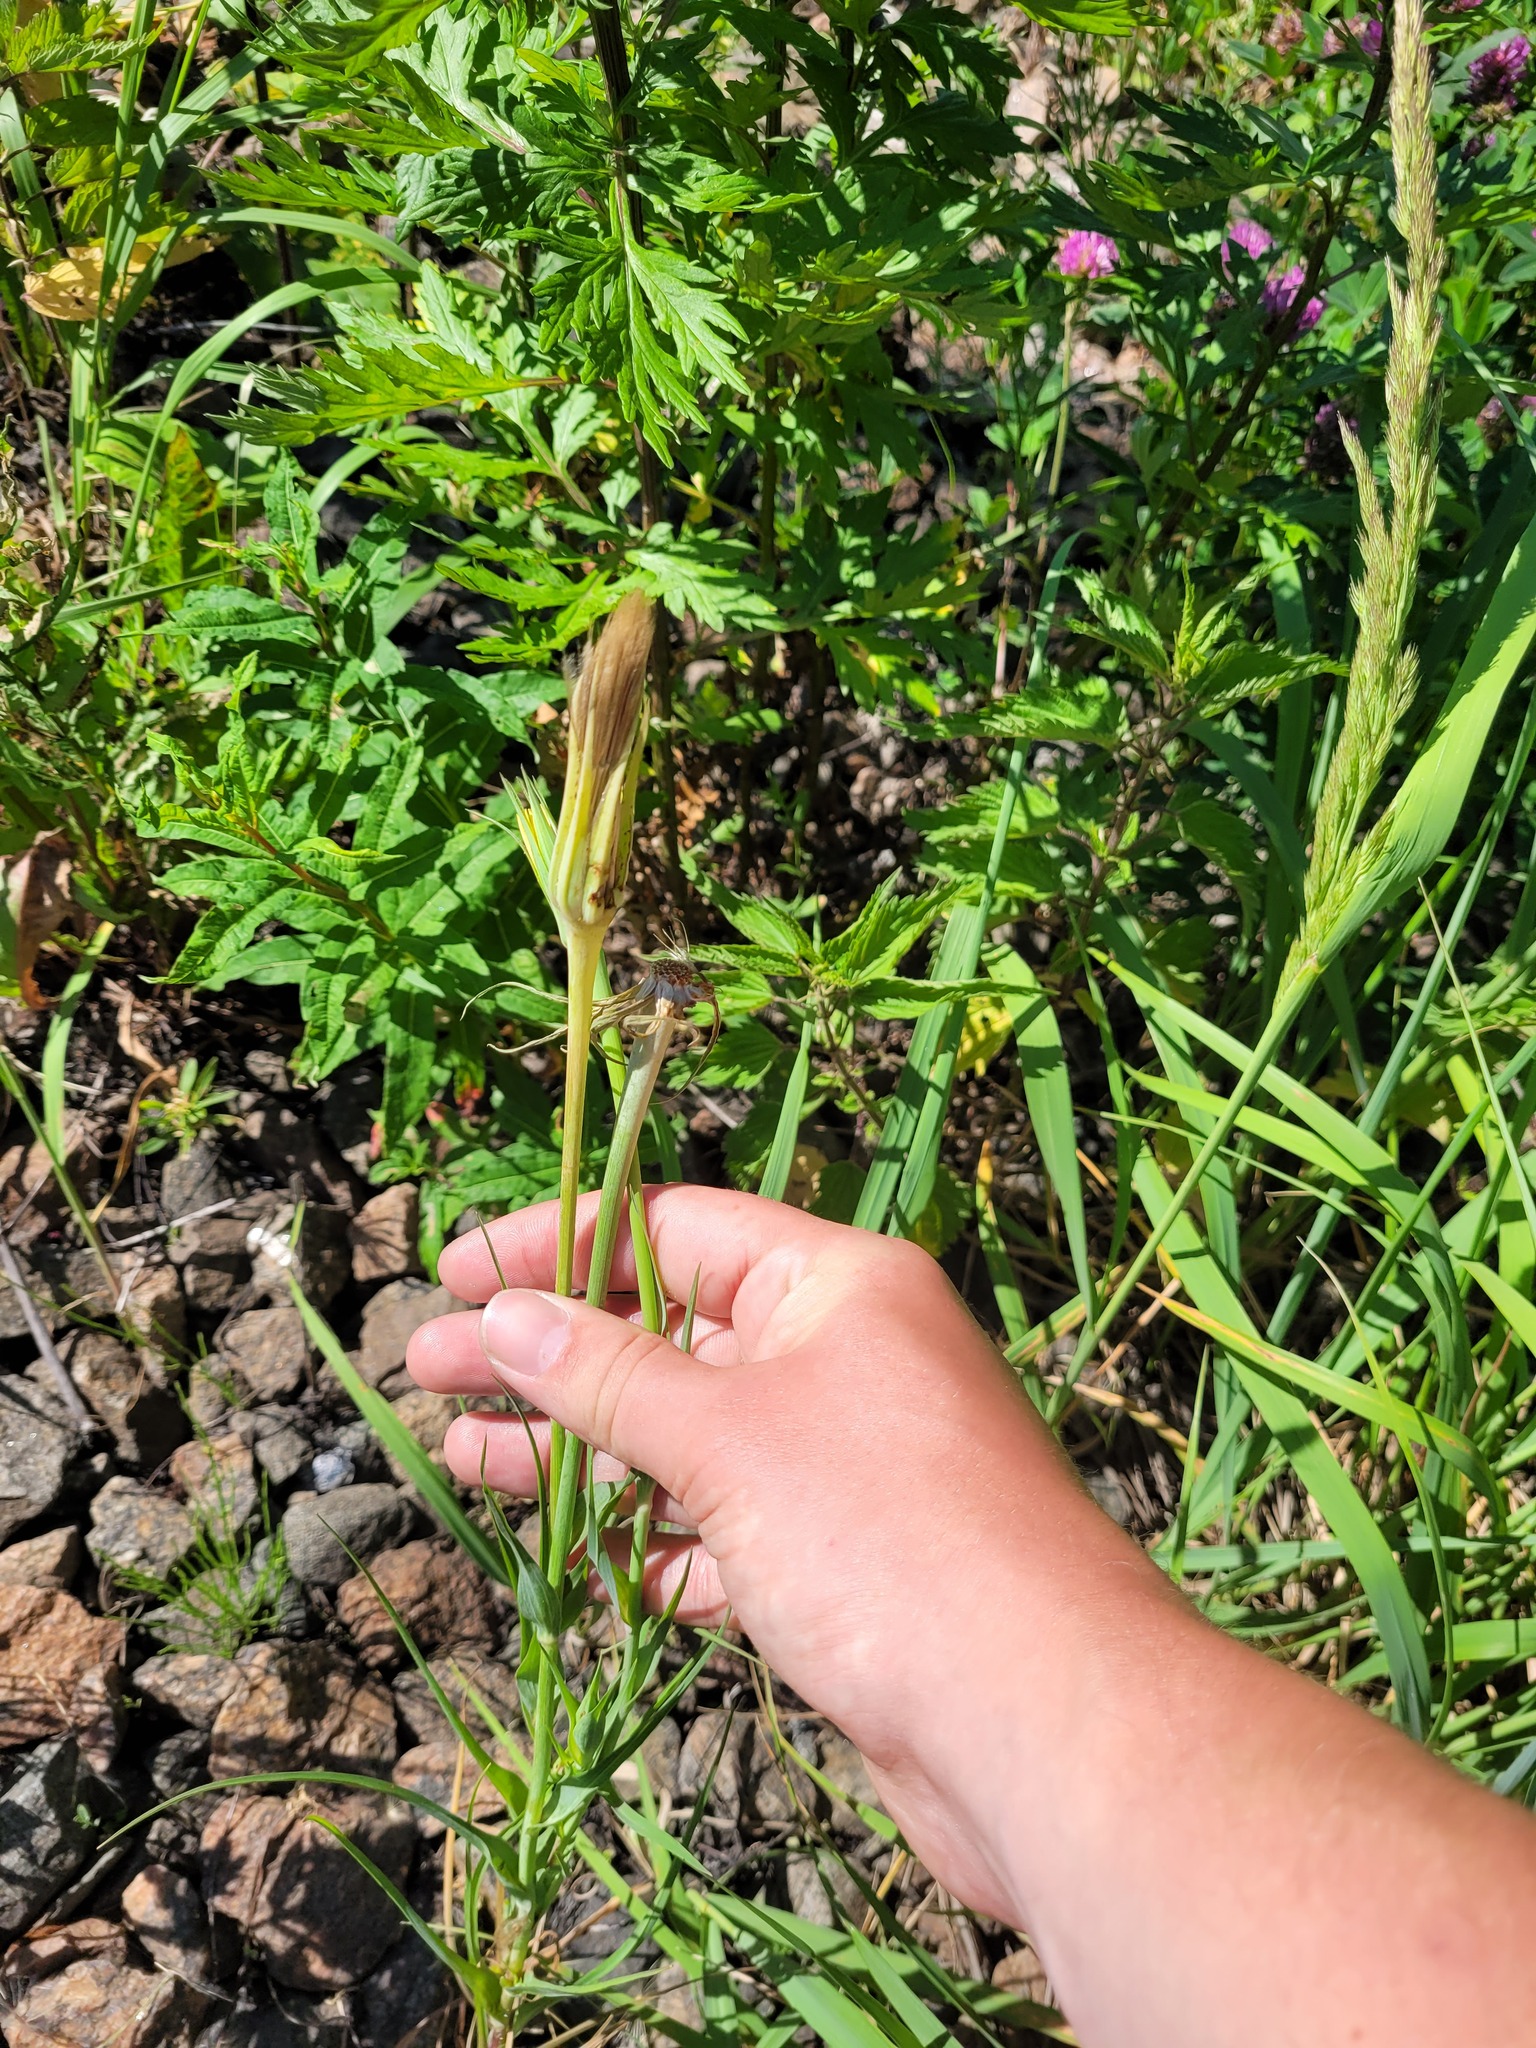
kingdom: Plantae
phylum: Tracheophyta
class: Magnoliopsida
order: Asterales
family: Asteraceae
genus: Tragopogon
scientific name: Tragopogon dubius
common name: Yellow salsify
